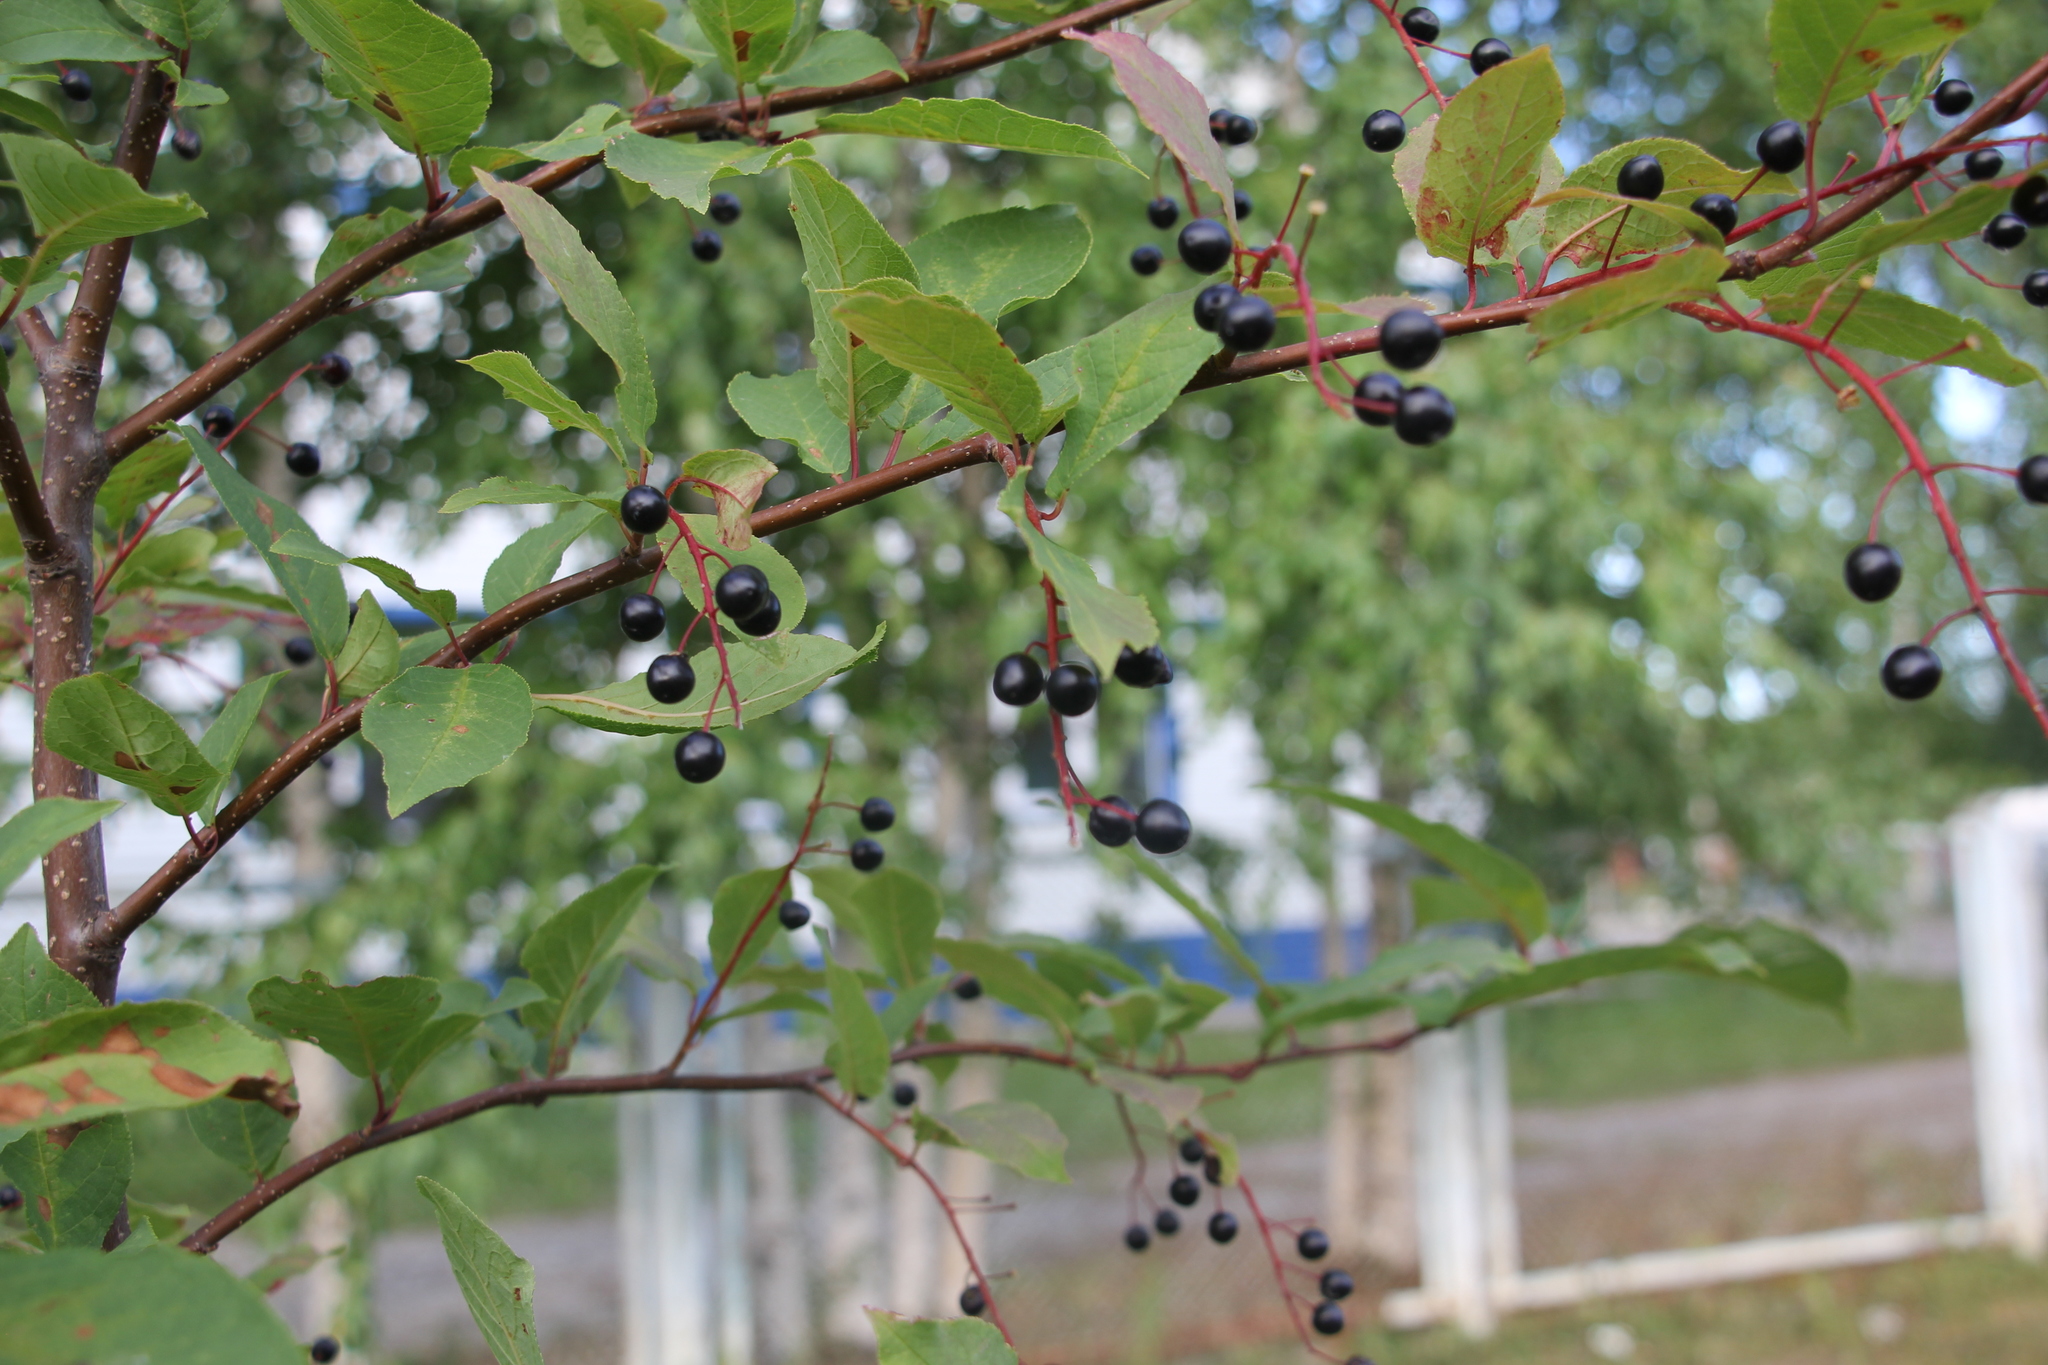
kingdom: Plantae
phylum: Tracheophyta
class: Magnoliopsida
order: Rosales
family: Rosaceae
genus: Prunus
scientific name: Prunus padus
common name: Bird cherry
